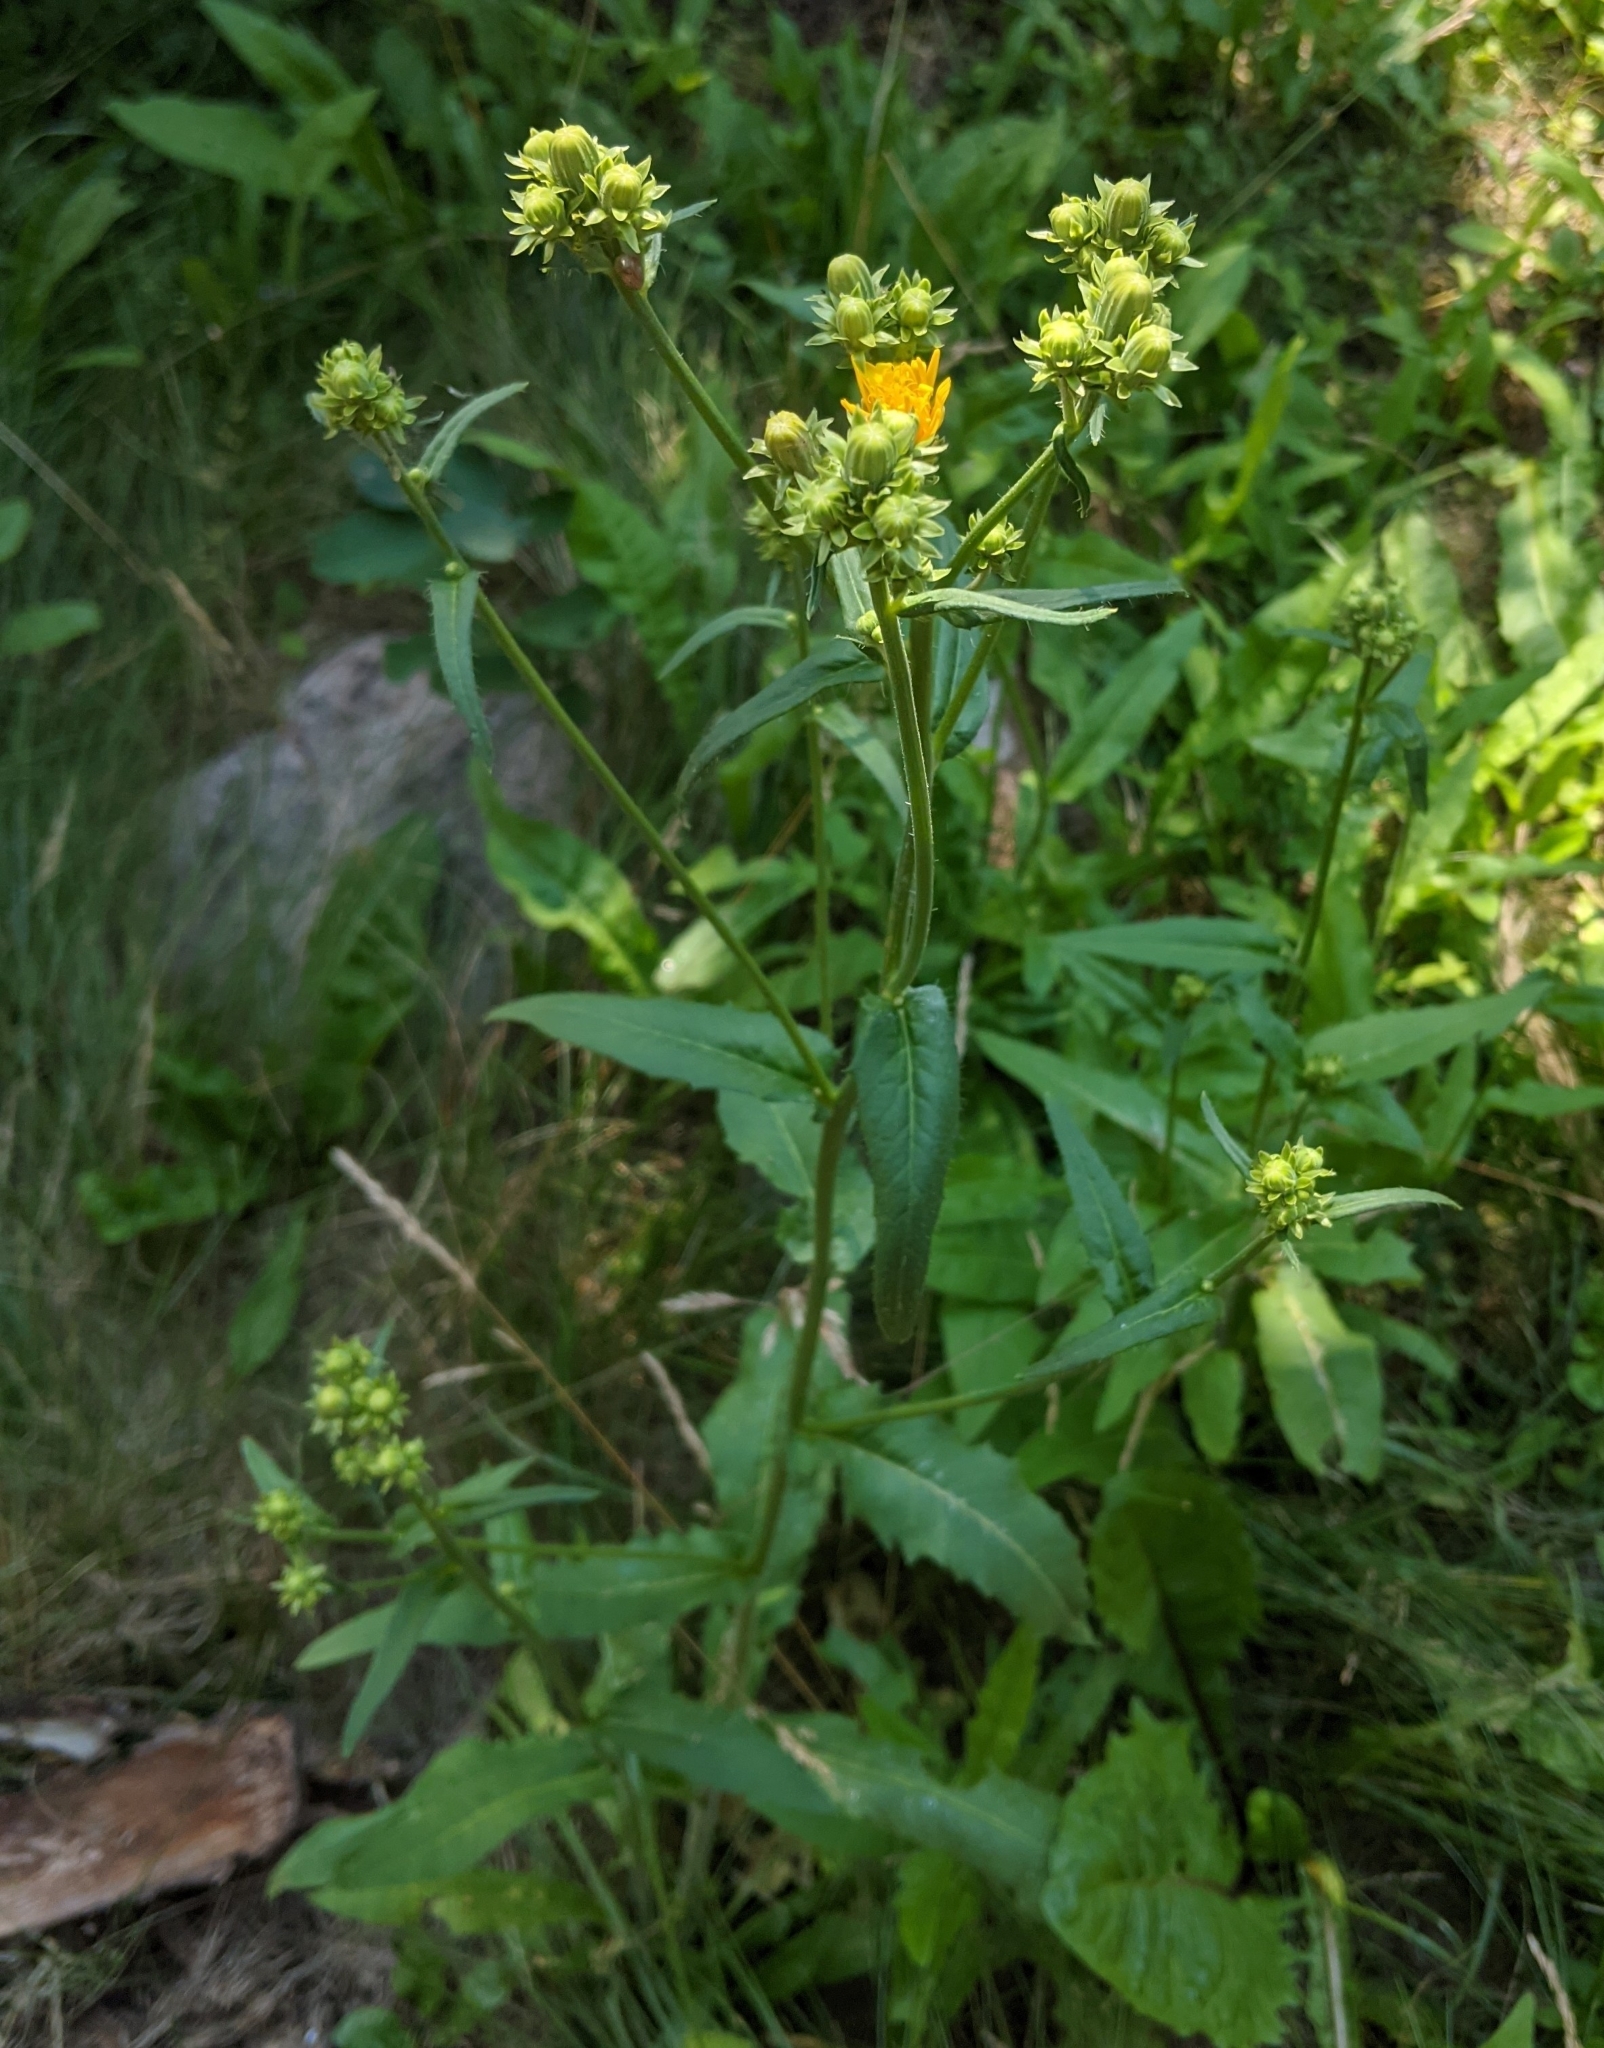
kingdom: Plantae
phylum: Tracheophyta
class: Magnoliopsida
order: Asterales
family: Asteraceae
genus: Picris
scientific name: Picris hieracioides
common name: Hawkweed oxtongue
